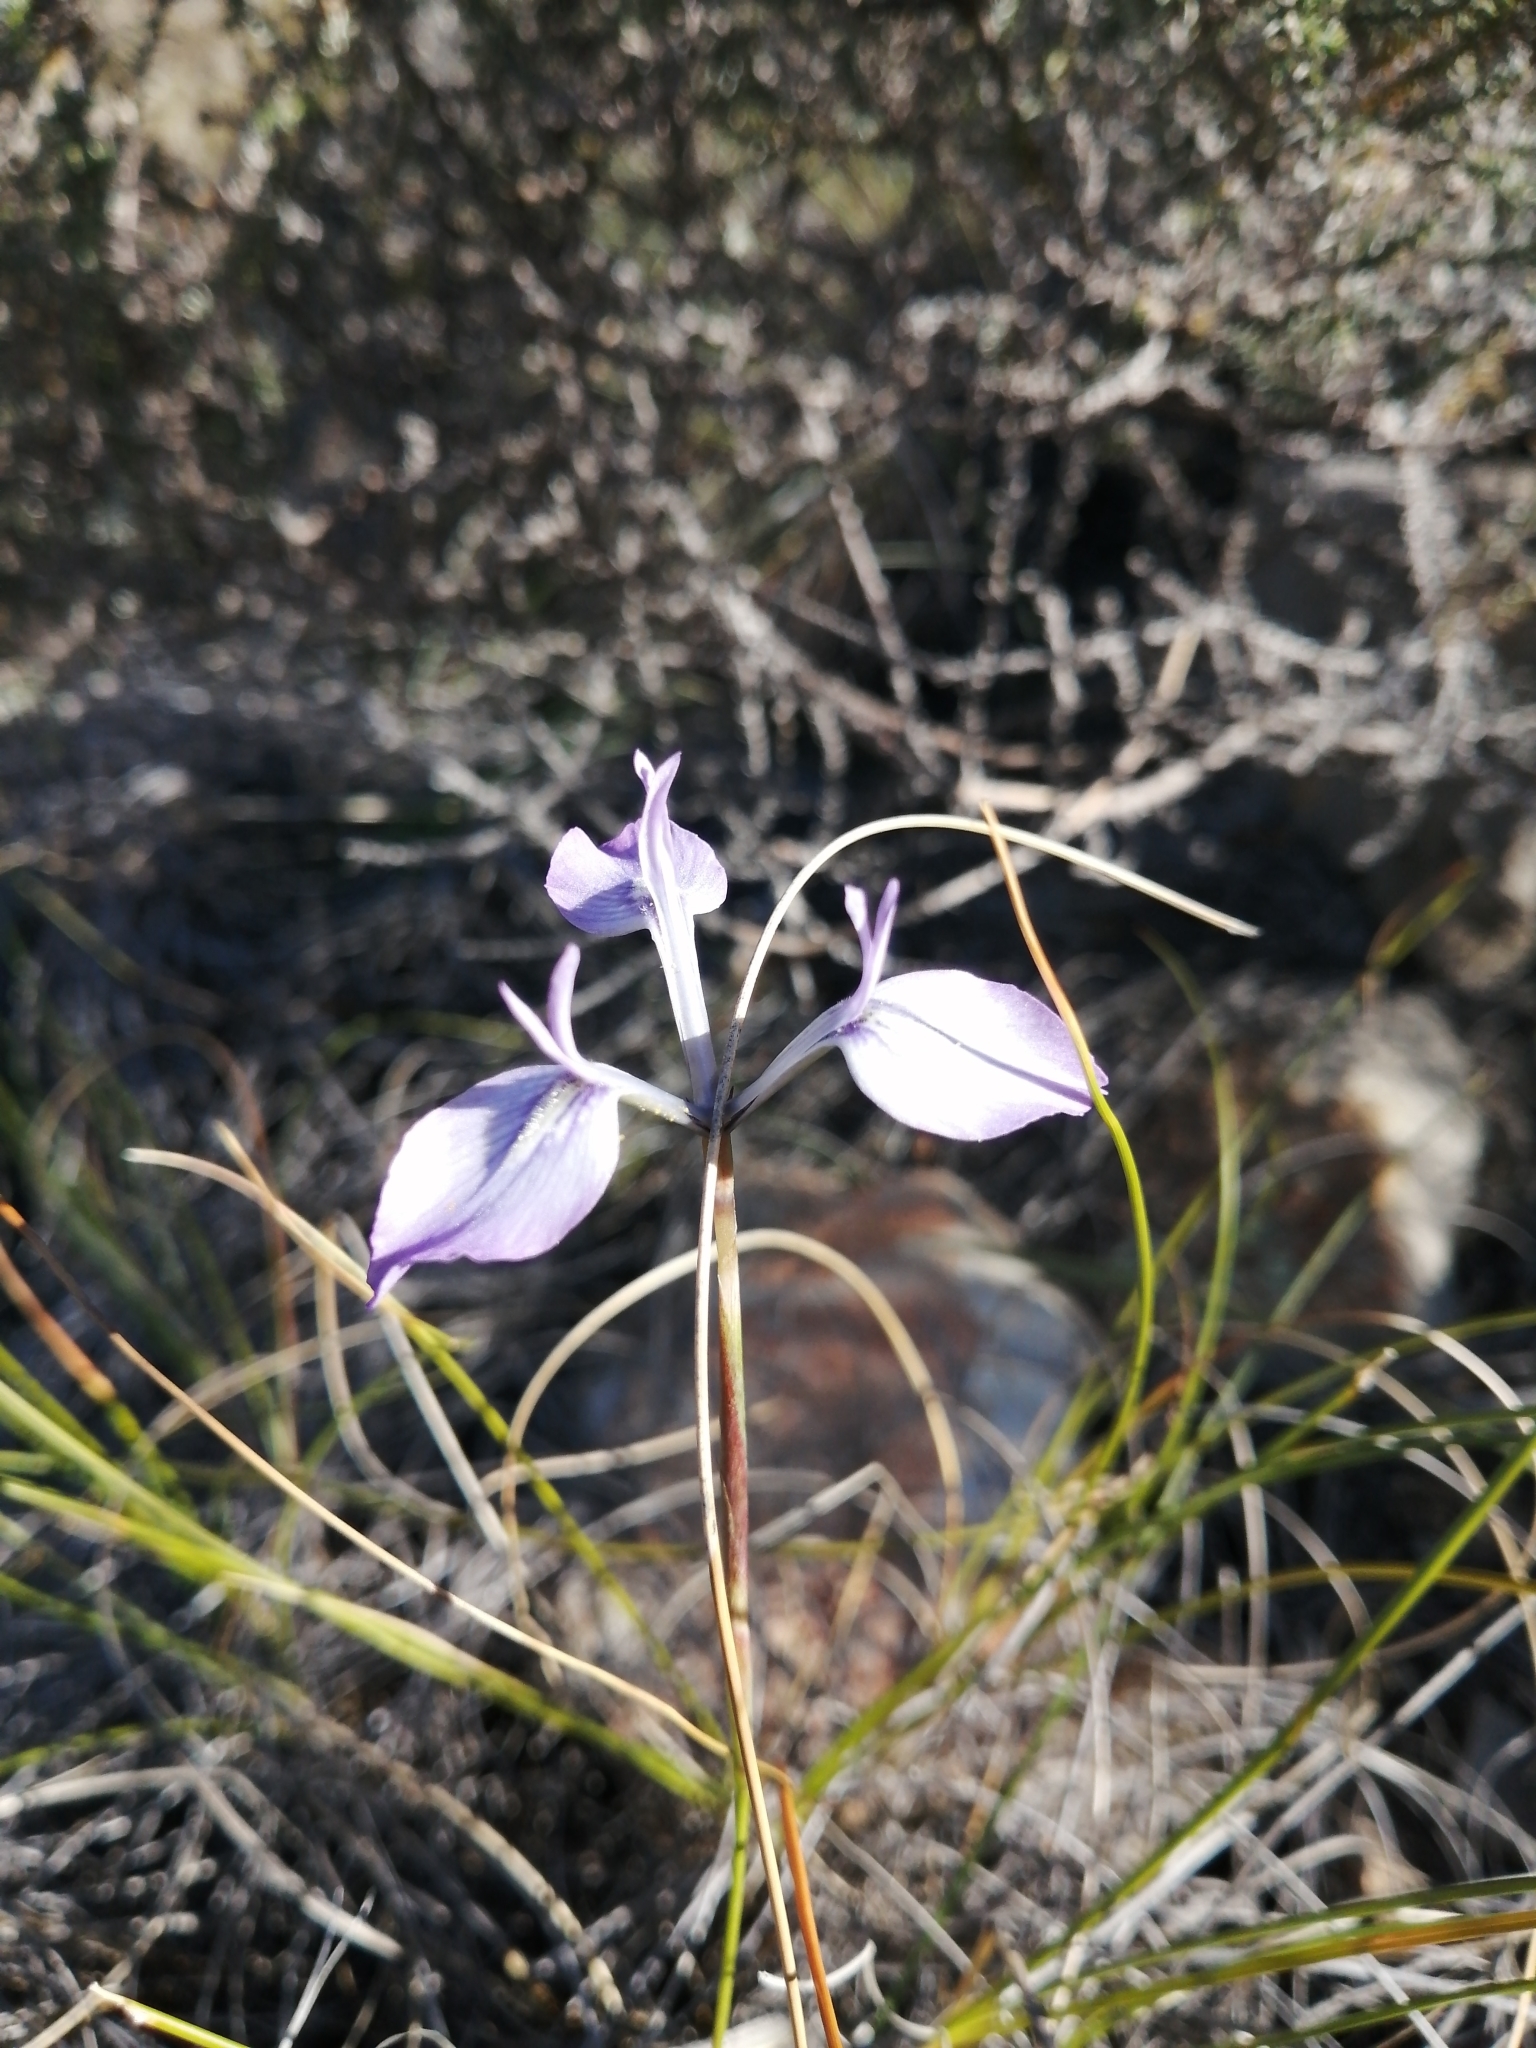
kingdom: Plantae
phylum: Tracheophyta
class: Liliopsida
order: Asparagales
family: Iridaceae
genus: Moraea
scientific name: Moraea tripetala
